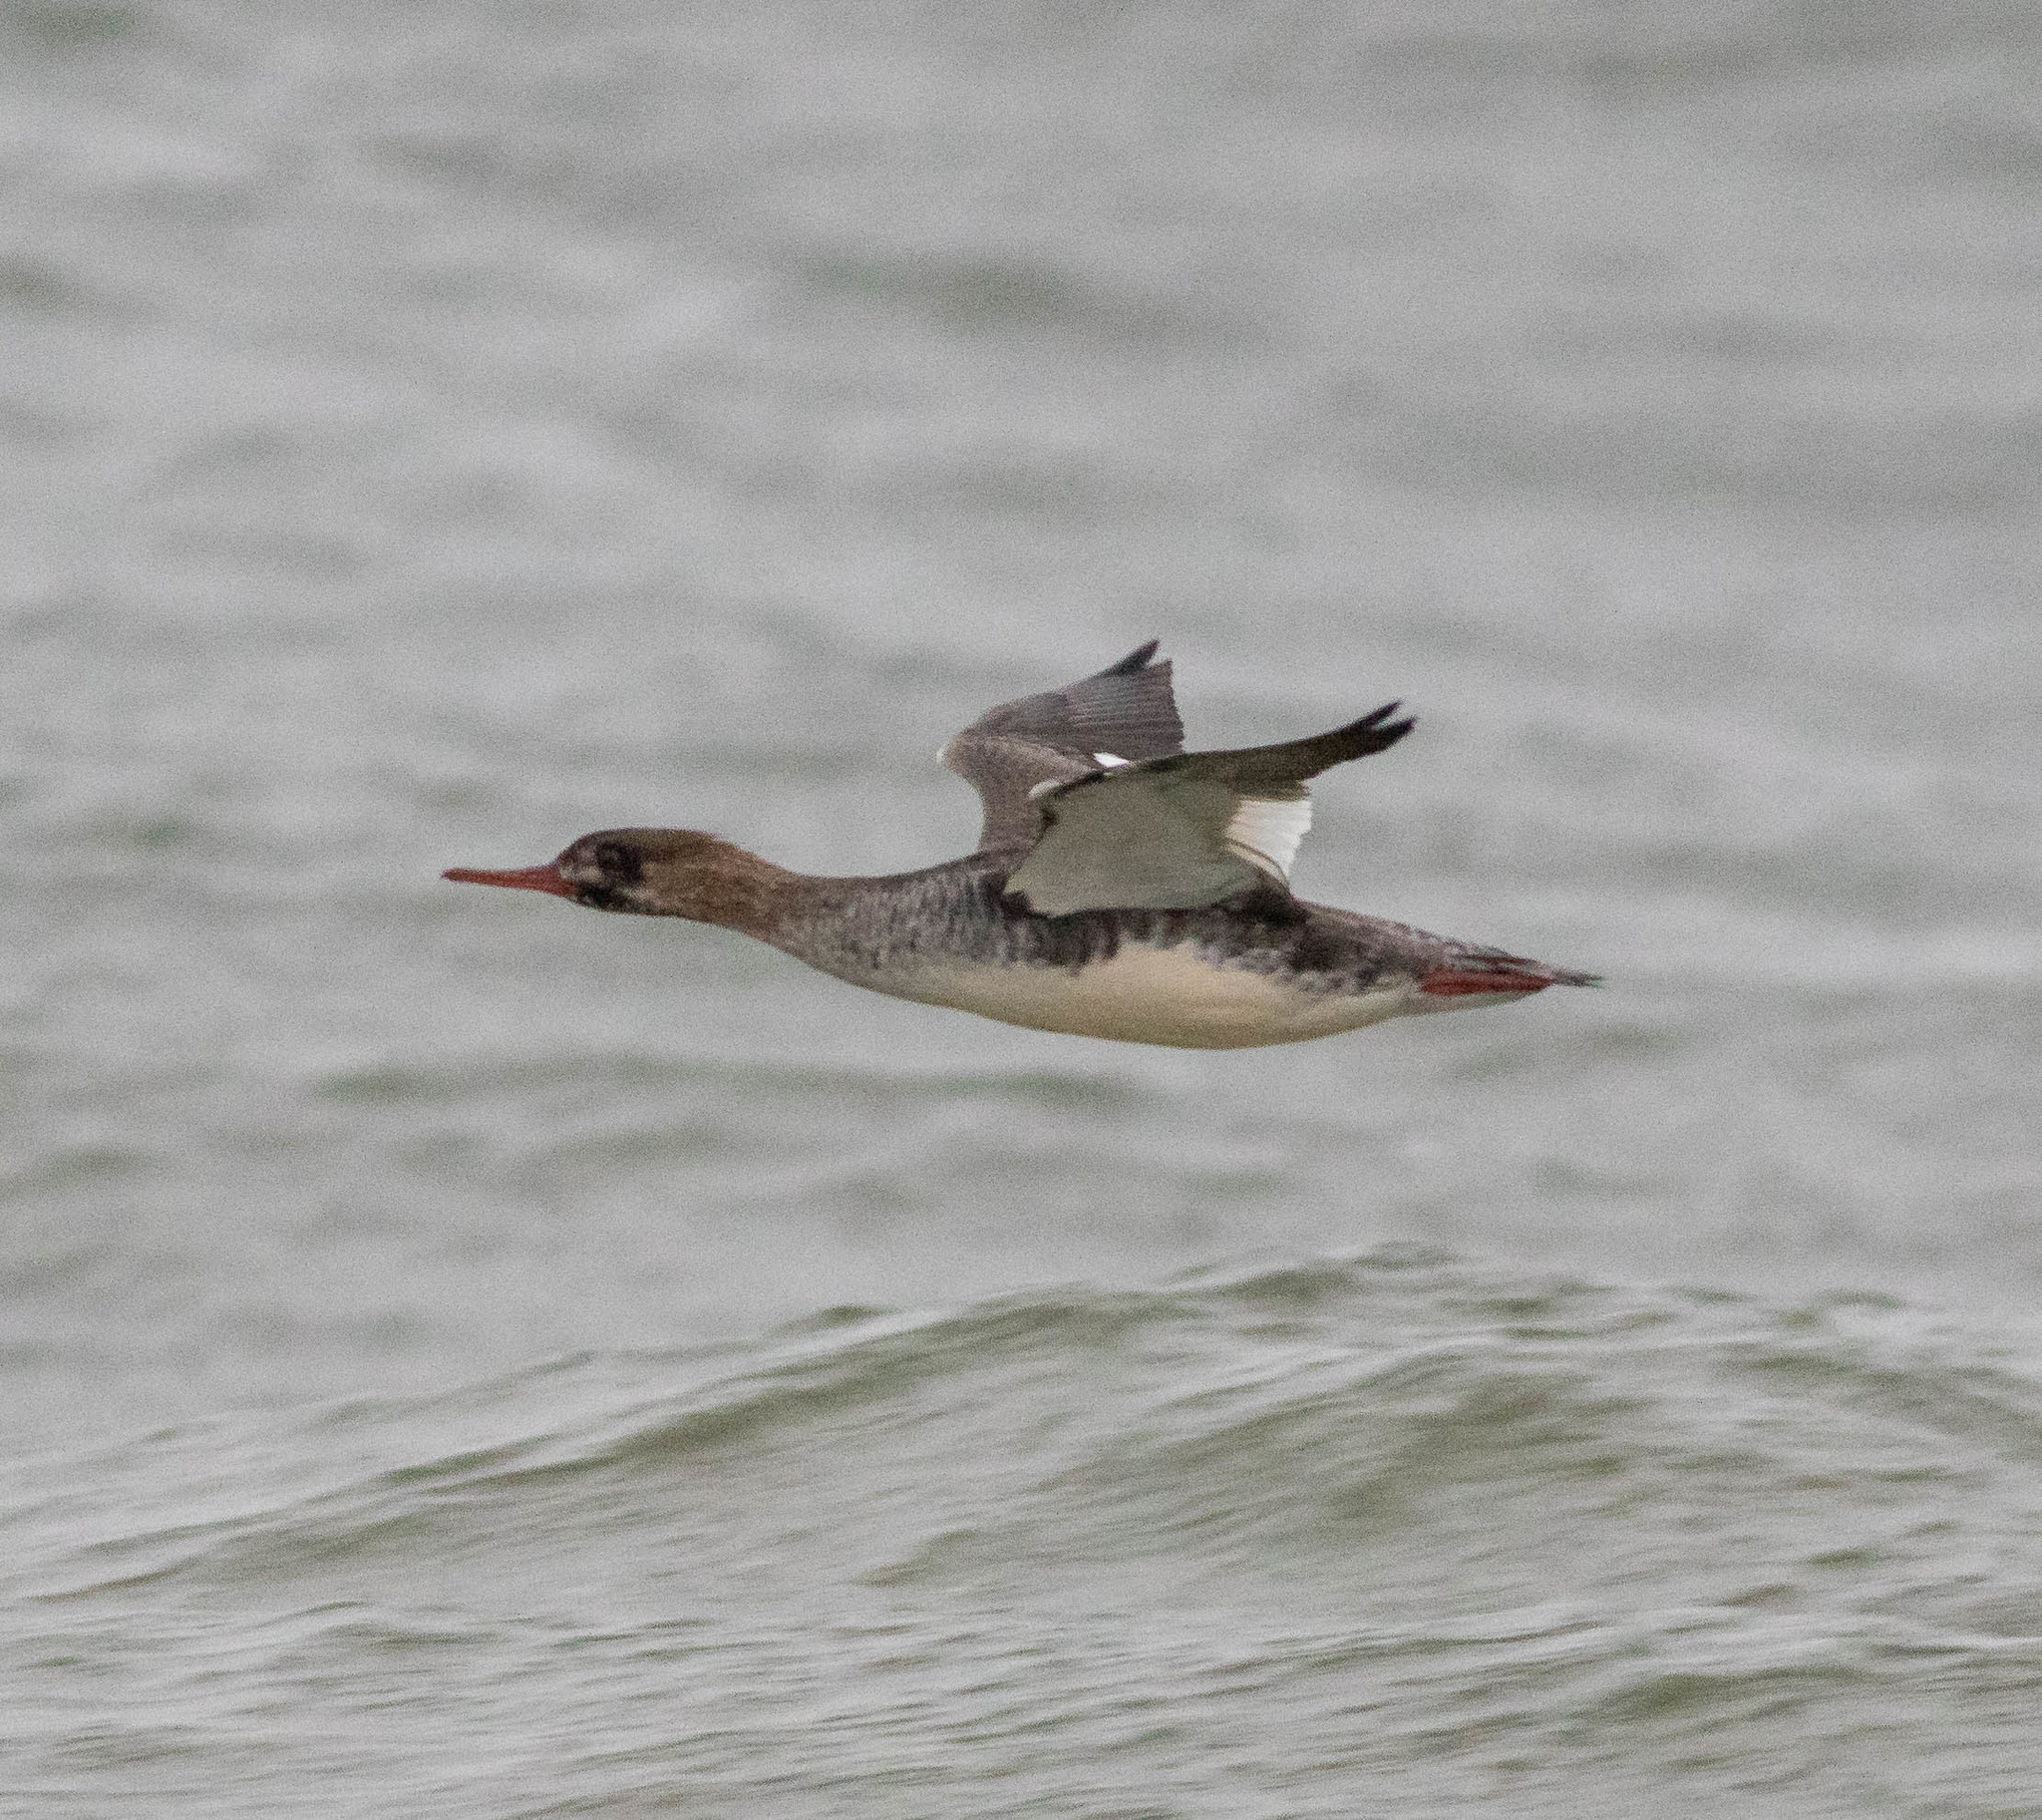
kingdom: Animalia
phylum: Chordata
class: Aves
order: Anseriformes
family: Anatidae
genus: Mergus
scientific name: Mergus serrator
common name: Red-breasted merganser
